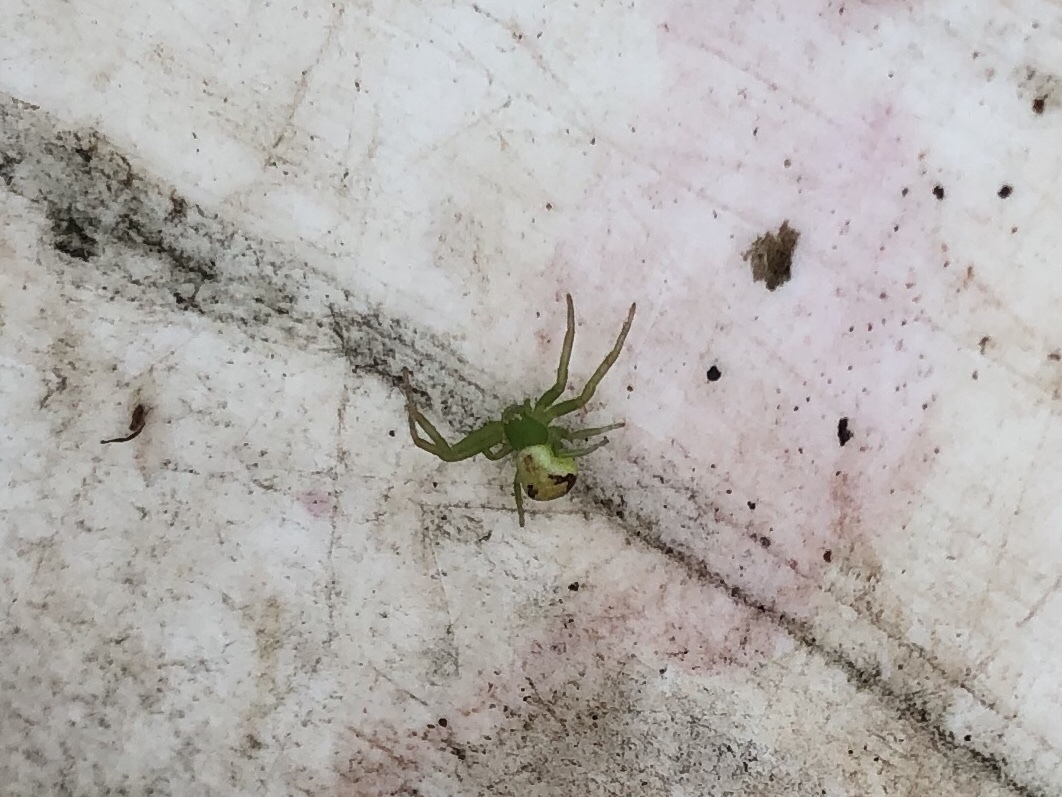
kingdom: Animalia
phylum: Arthropoda
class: Arachnida
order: Araneae
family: Thomisidae
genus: Ebrechtella
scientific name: Ebrechtella tricuspidata
